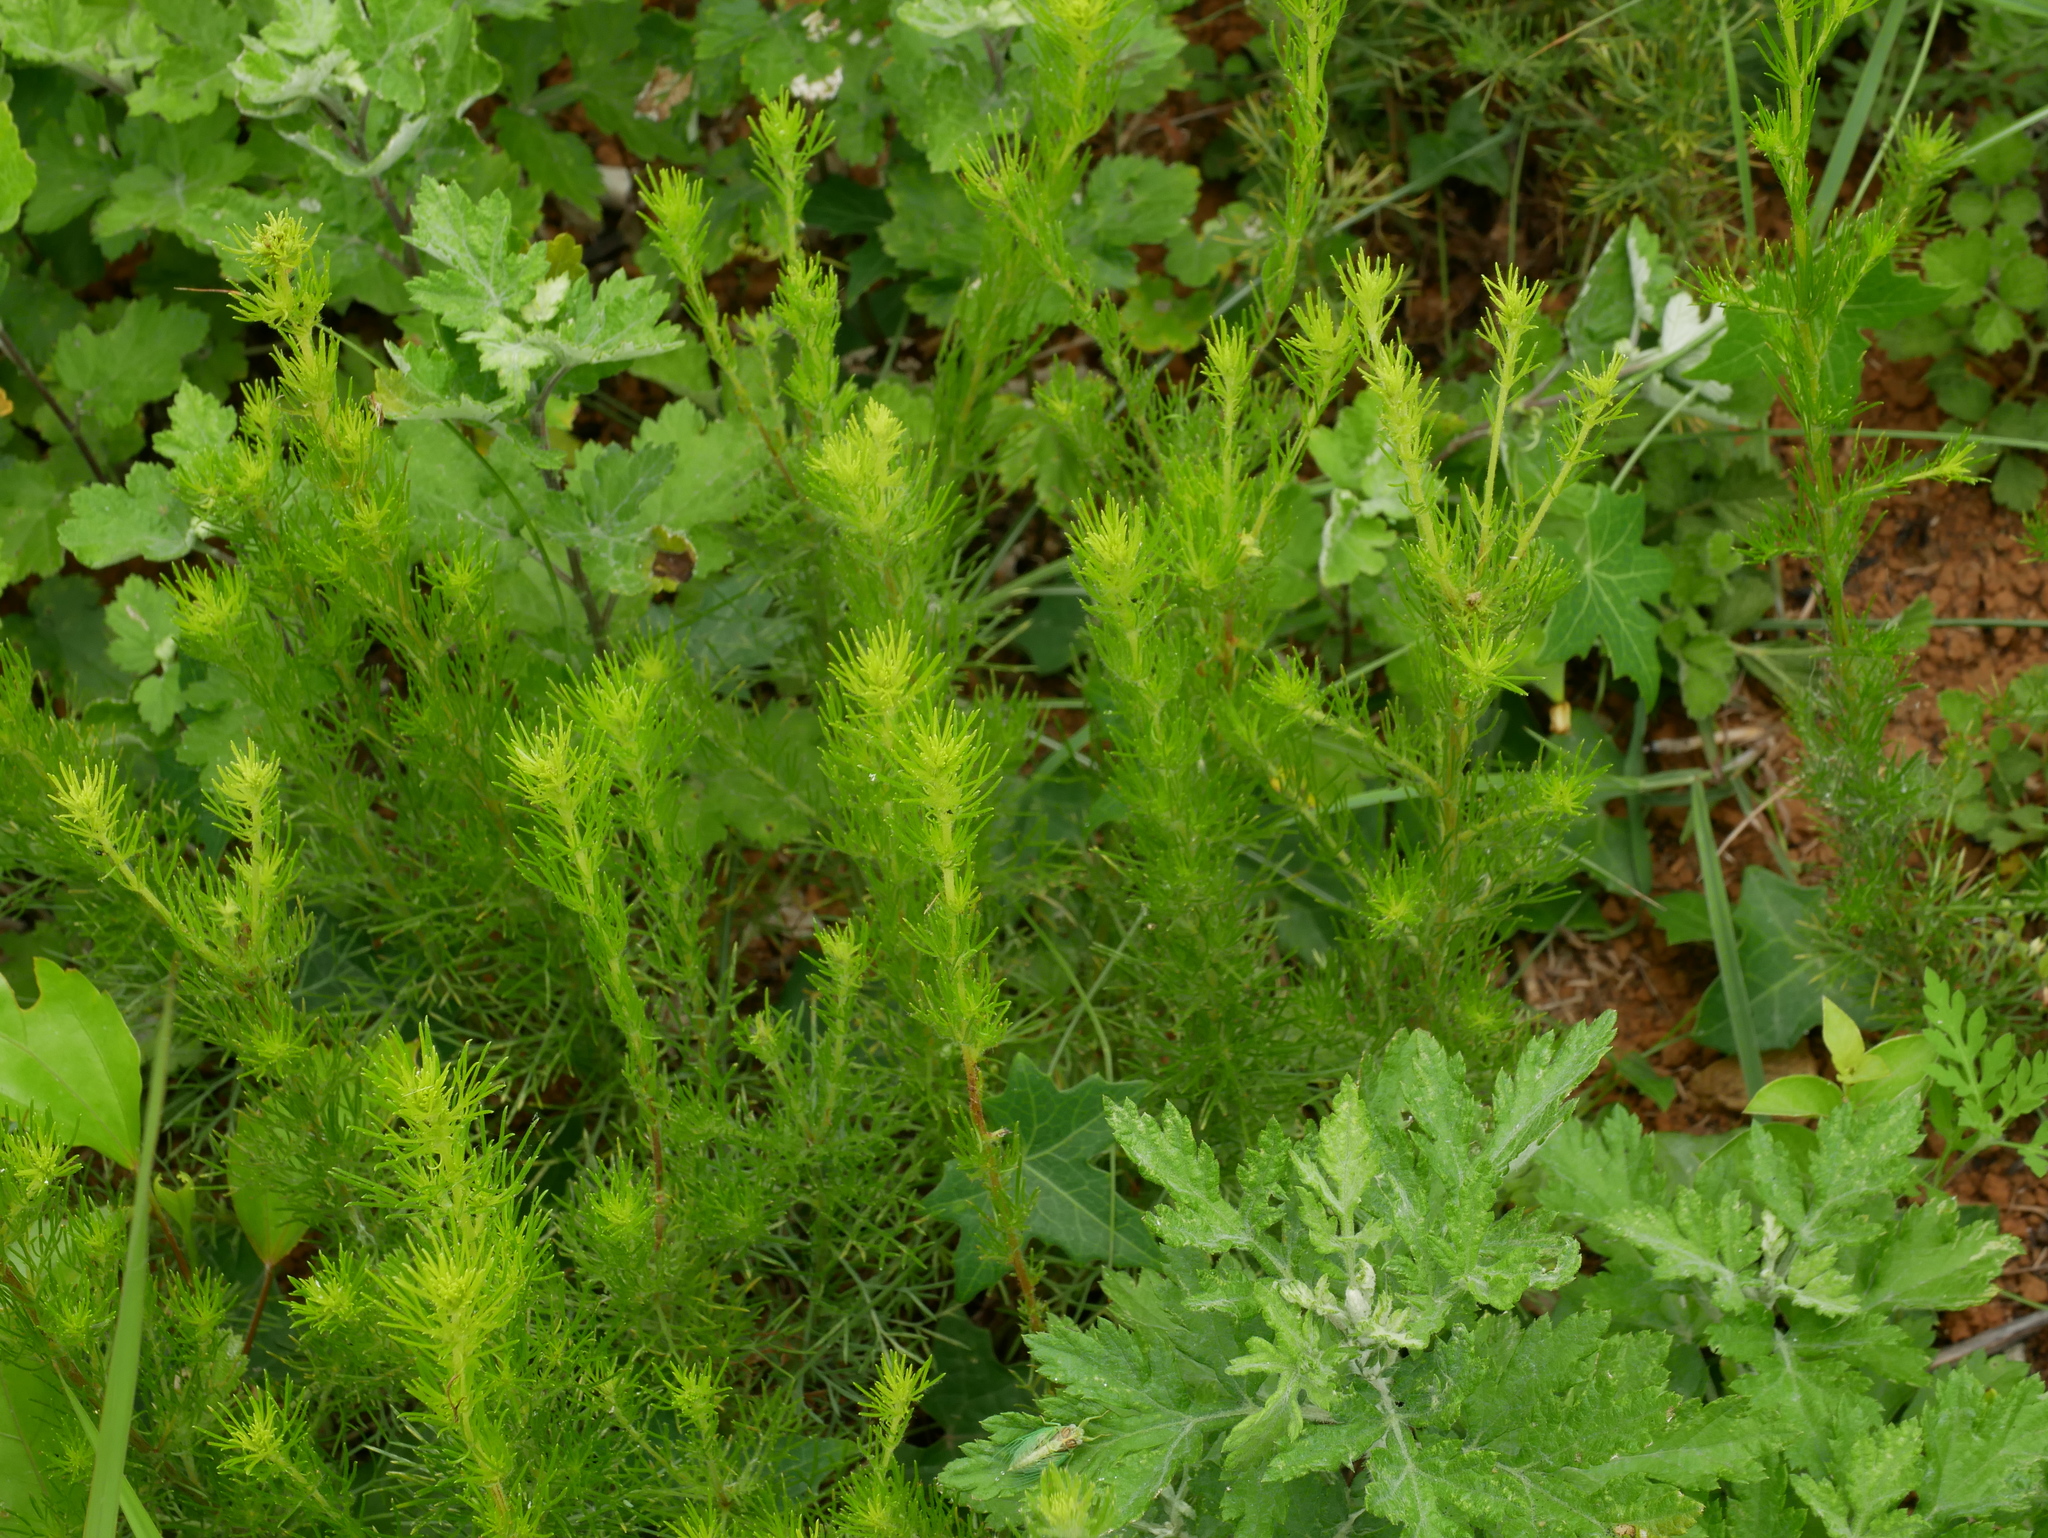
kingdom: Plantae
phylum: Tracheophyta
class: Magnoliopsida
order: Asterales
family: Asteraceae
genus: Artemisia
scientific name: Artemisia capillaris
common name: Yin-chen wormwood
